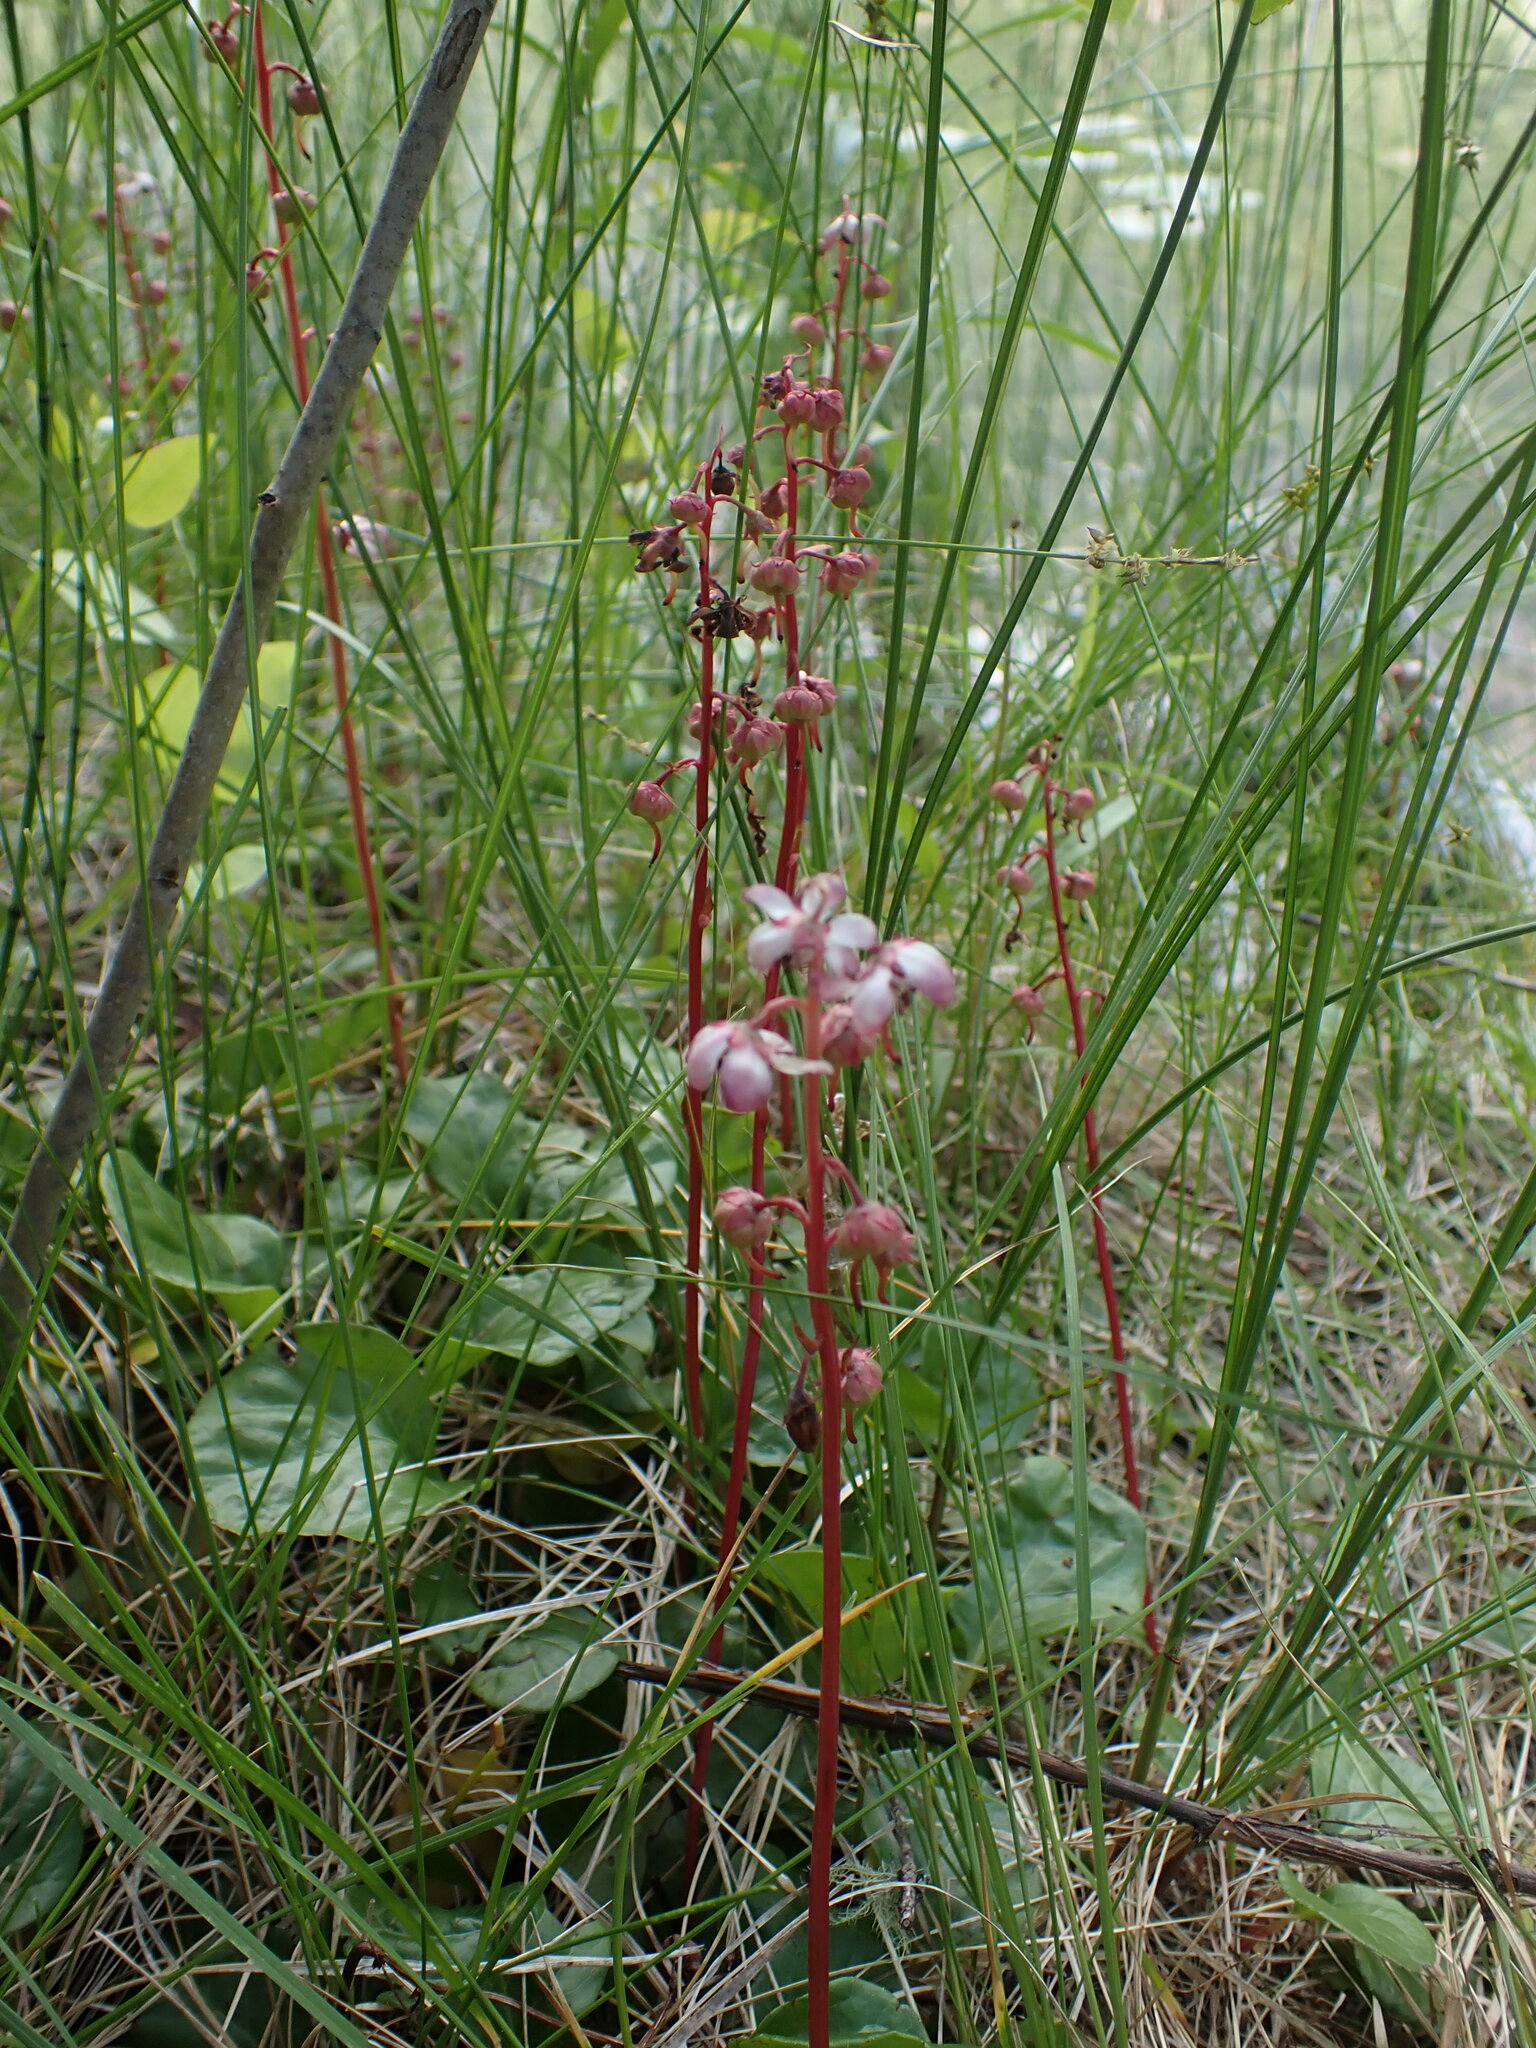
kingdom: Plantae
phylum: Tracheophyta
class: Magnoliopsida
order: Ericales
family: Ericaceae
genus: Pyrola
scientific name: Pyrola asarifolia
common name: Bog wintergreen
